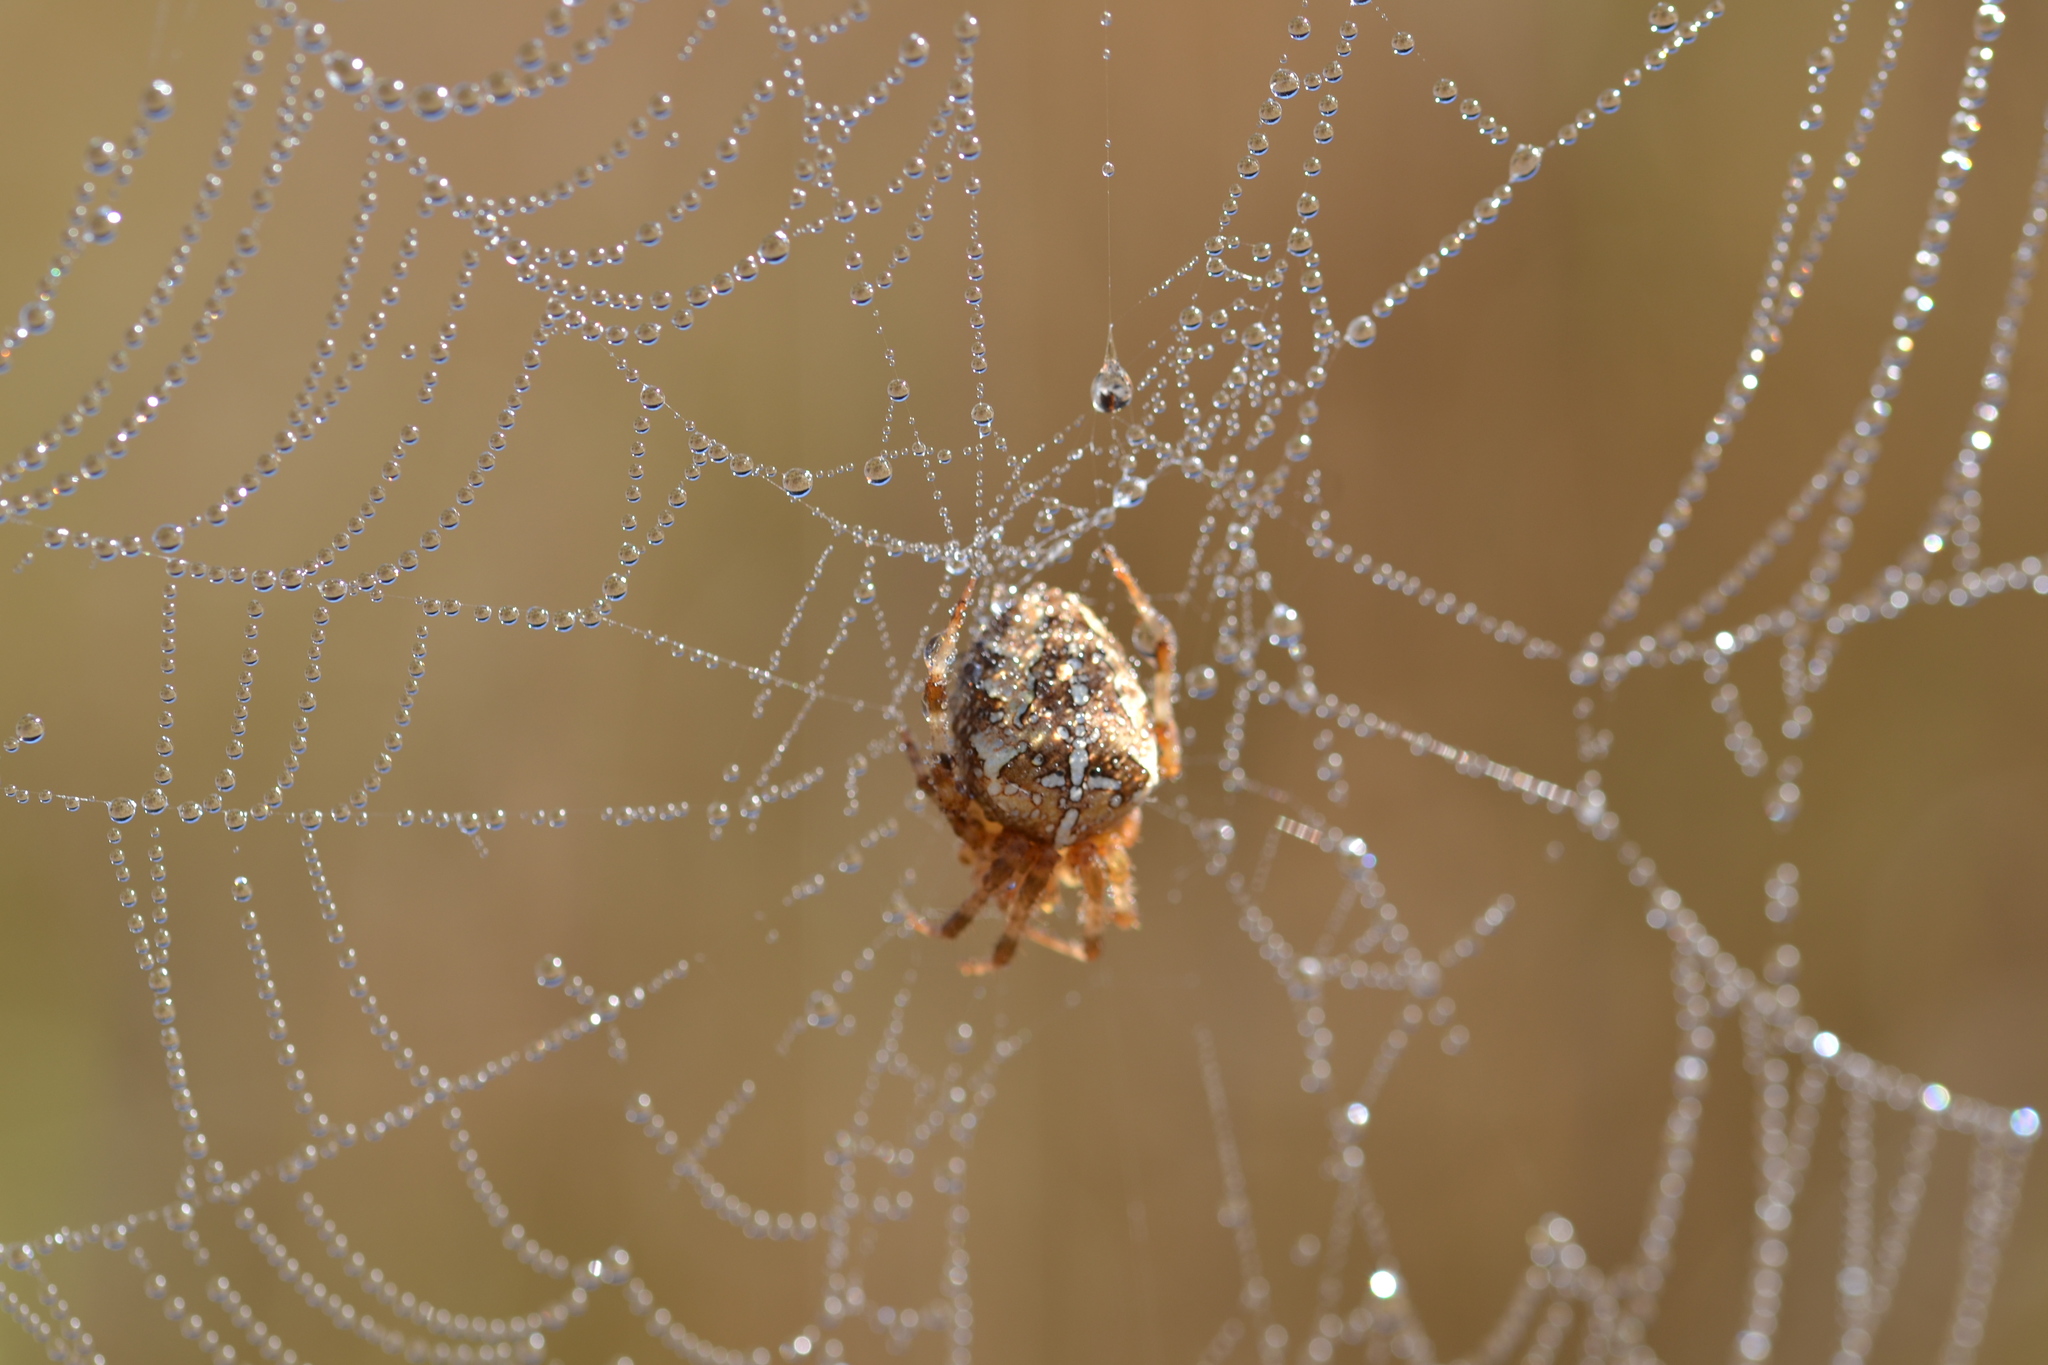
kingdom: Animalia
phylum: Arthropoda
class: Arachnida
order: Araneae
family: Araneidae
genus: Araneus
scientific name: Araneus diadematus
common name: Cross orbweaver
